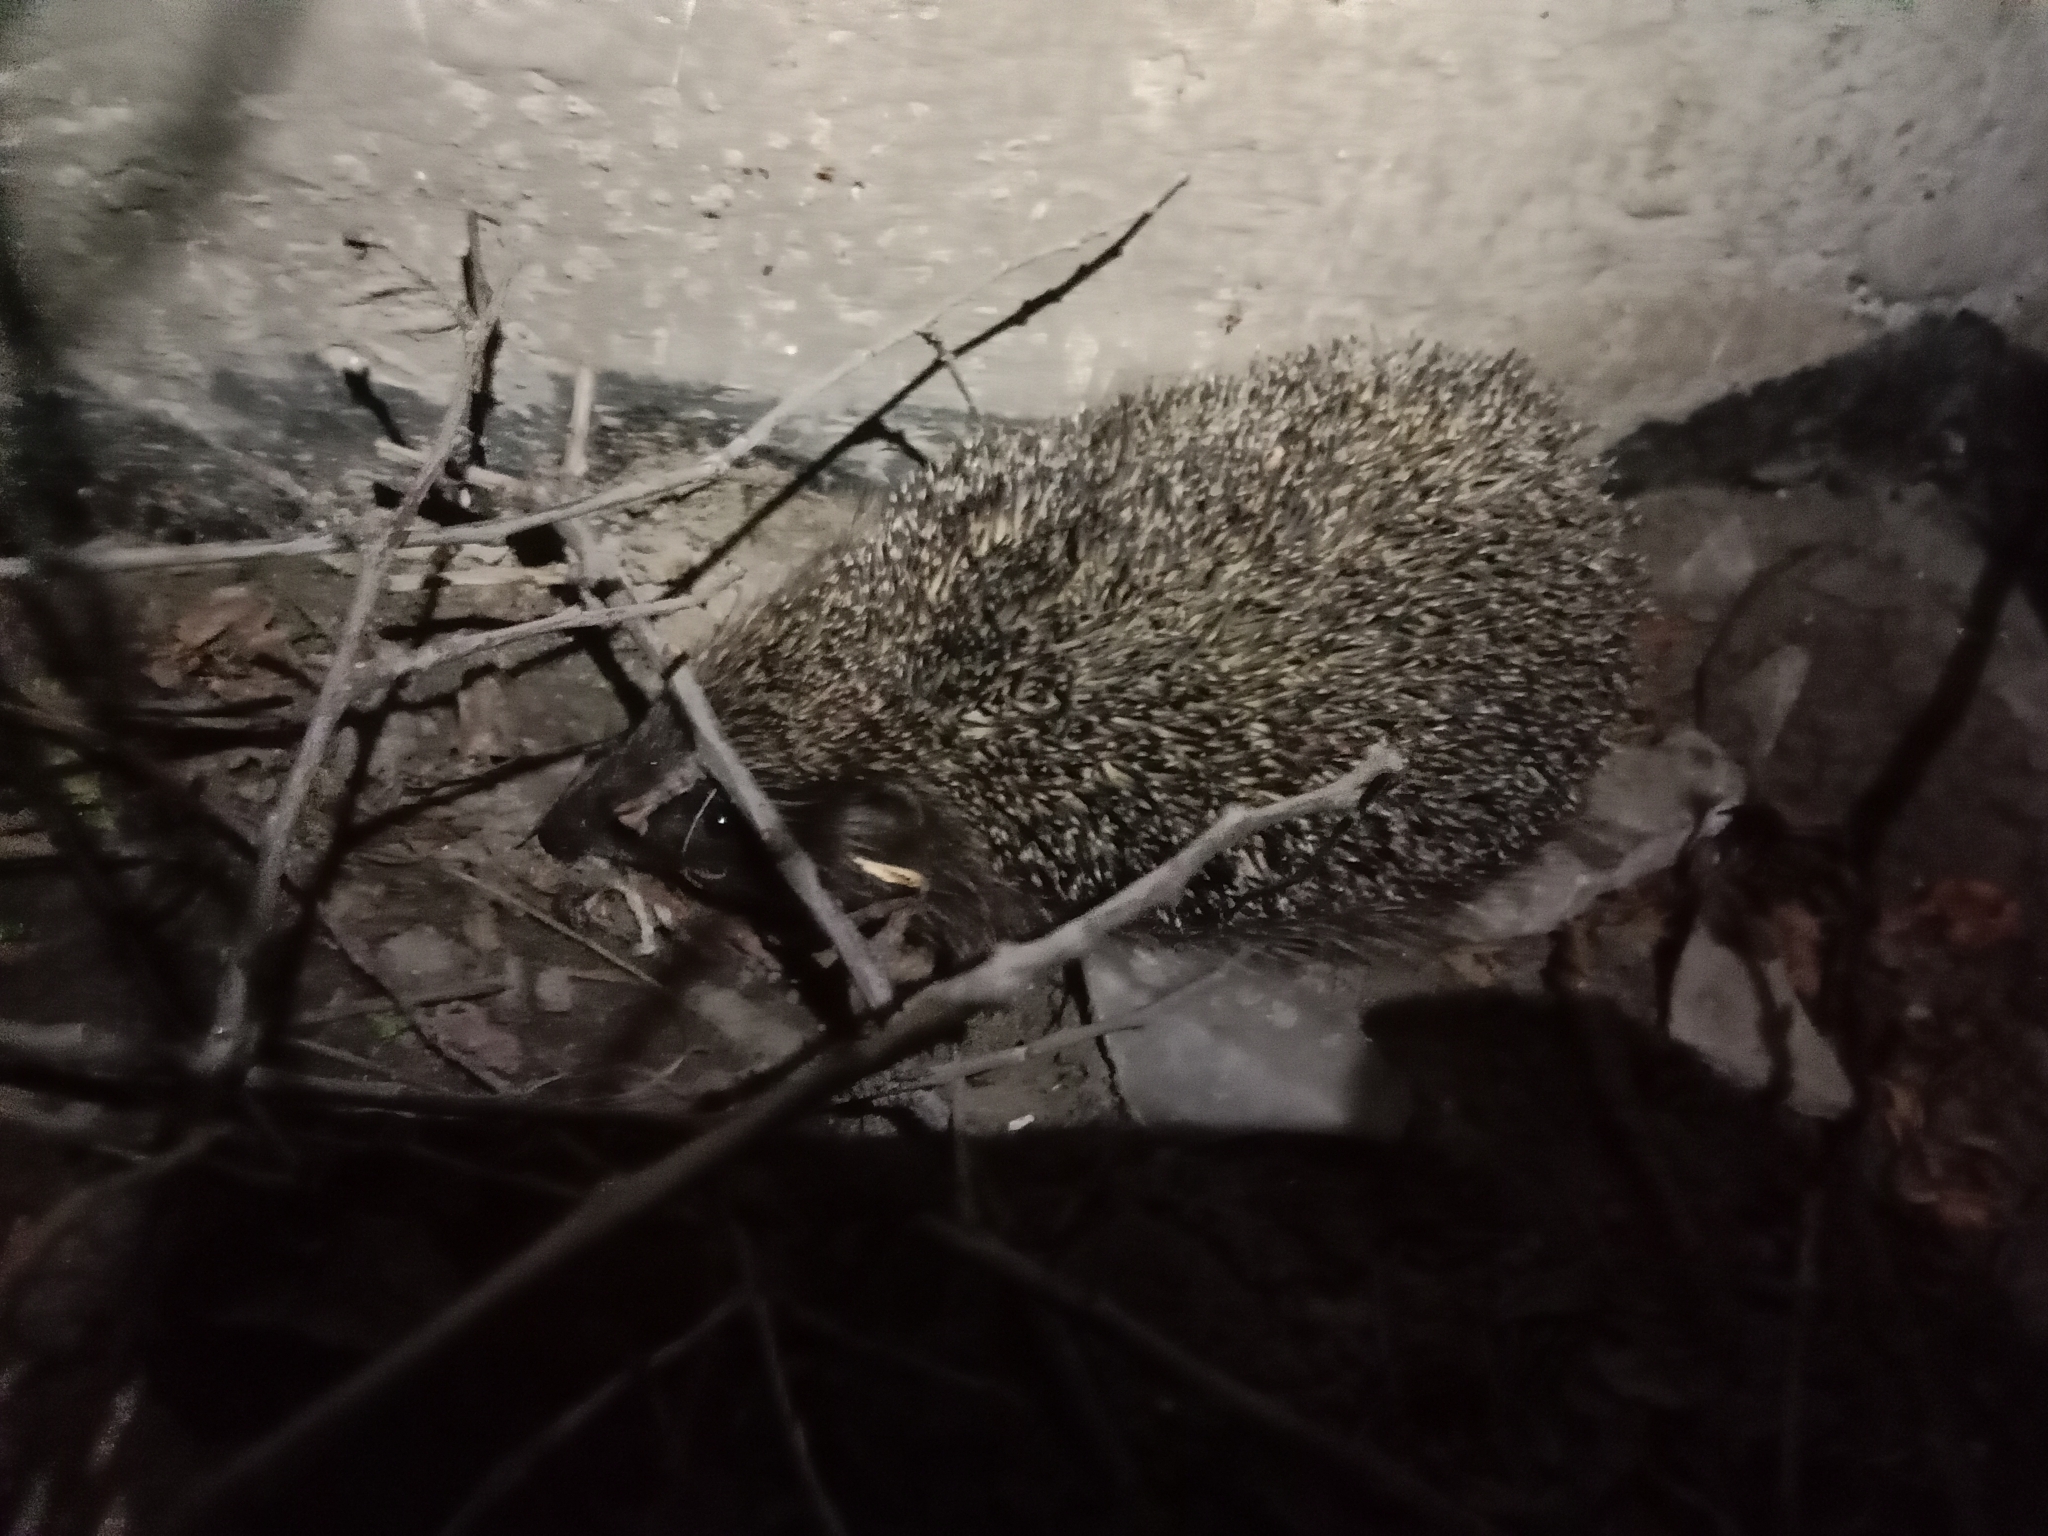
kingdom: Animalia
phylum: Chordata
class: Mammalia
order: Erinaceomorpha
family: Erinaceidae
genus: Erinaceus
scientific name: Erinaceus roumanicus
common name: Northern white-breasted hedgehog
